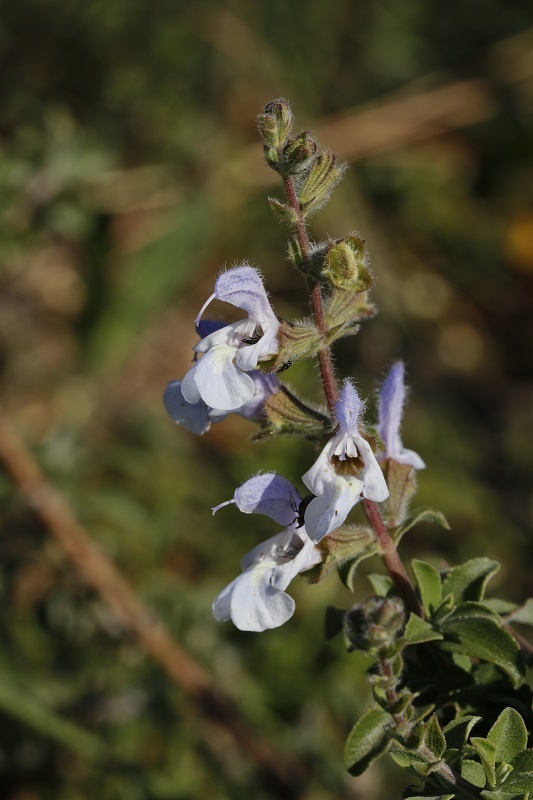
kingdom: Plantae
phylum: Tracheophyta
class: Magnoliopsida
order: Lamiales
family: Lamiaceae
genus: Salvia
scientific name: Salvia africana
